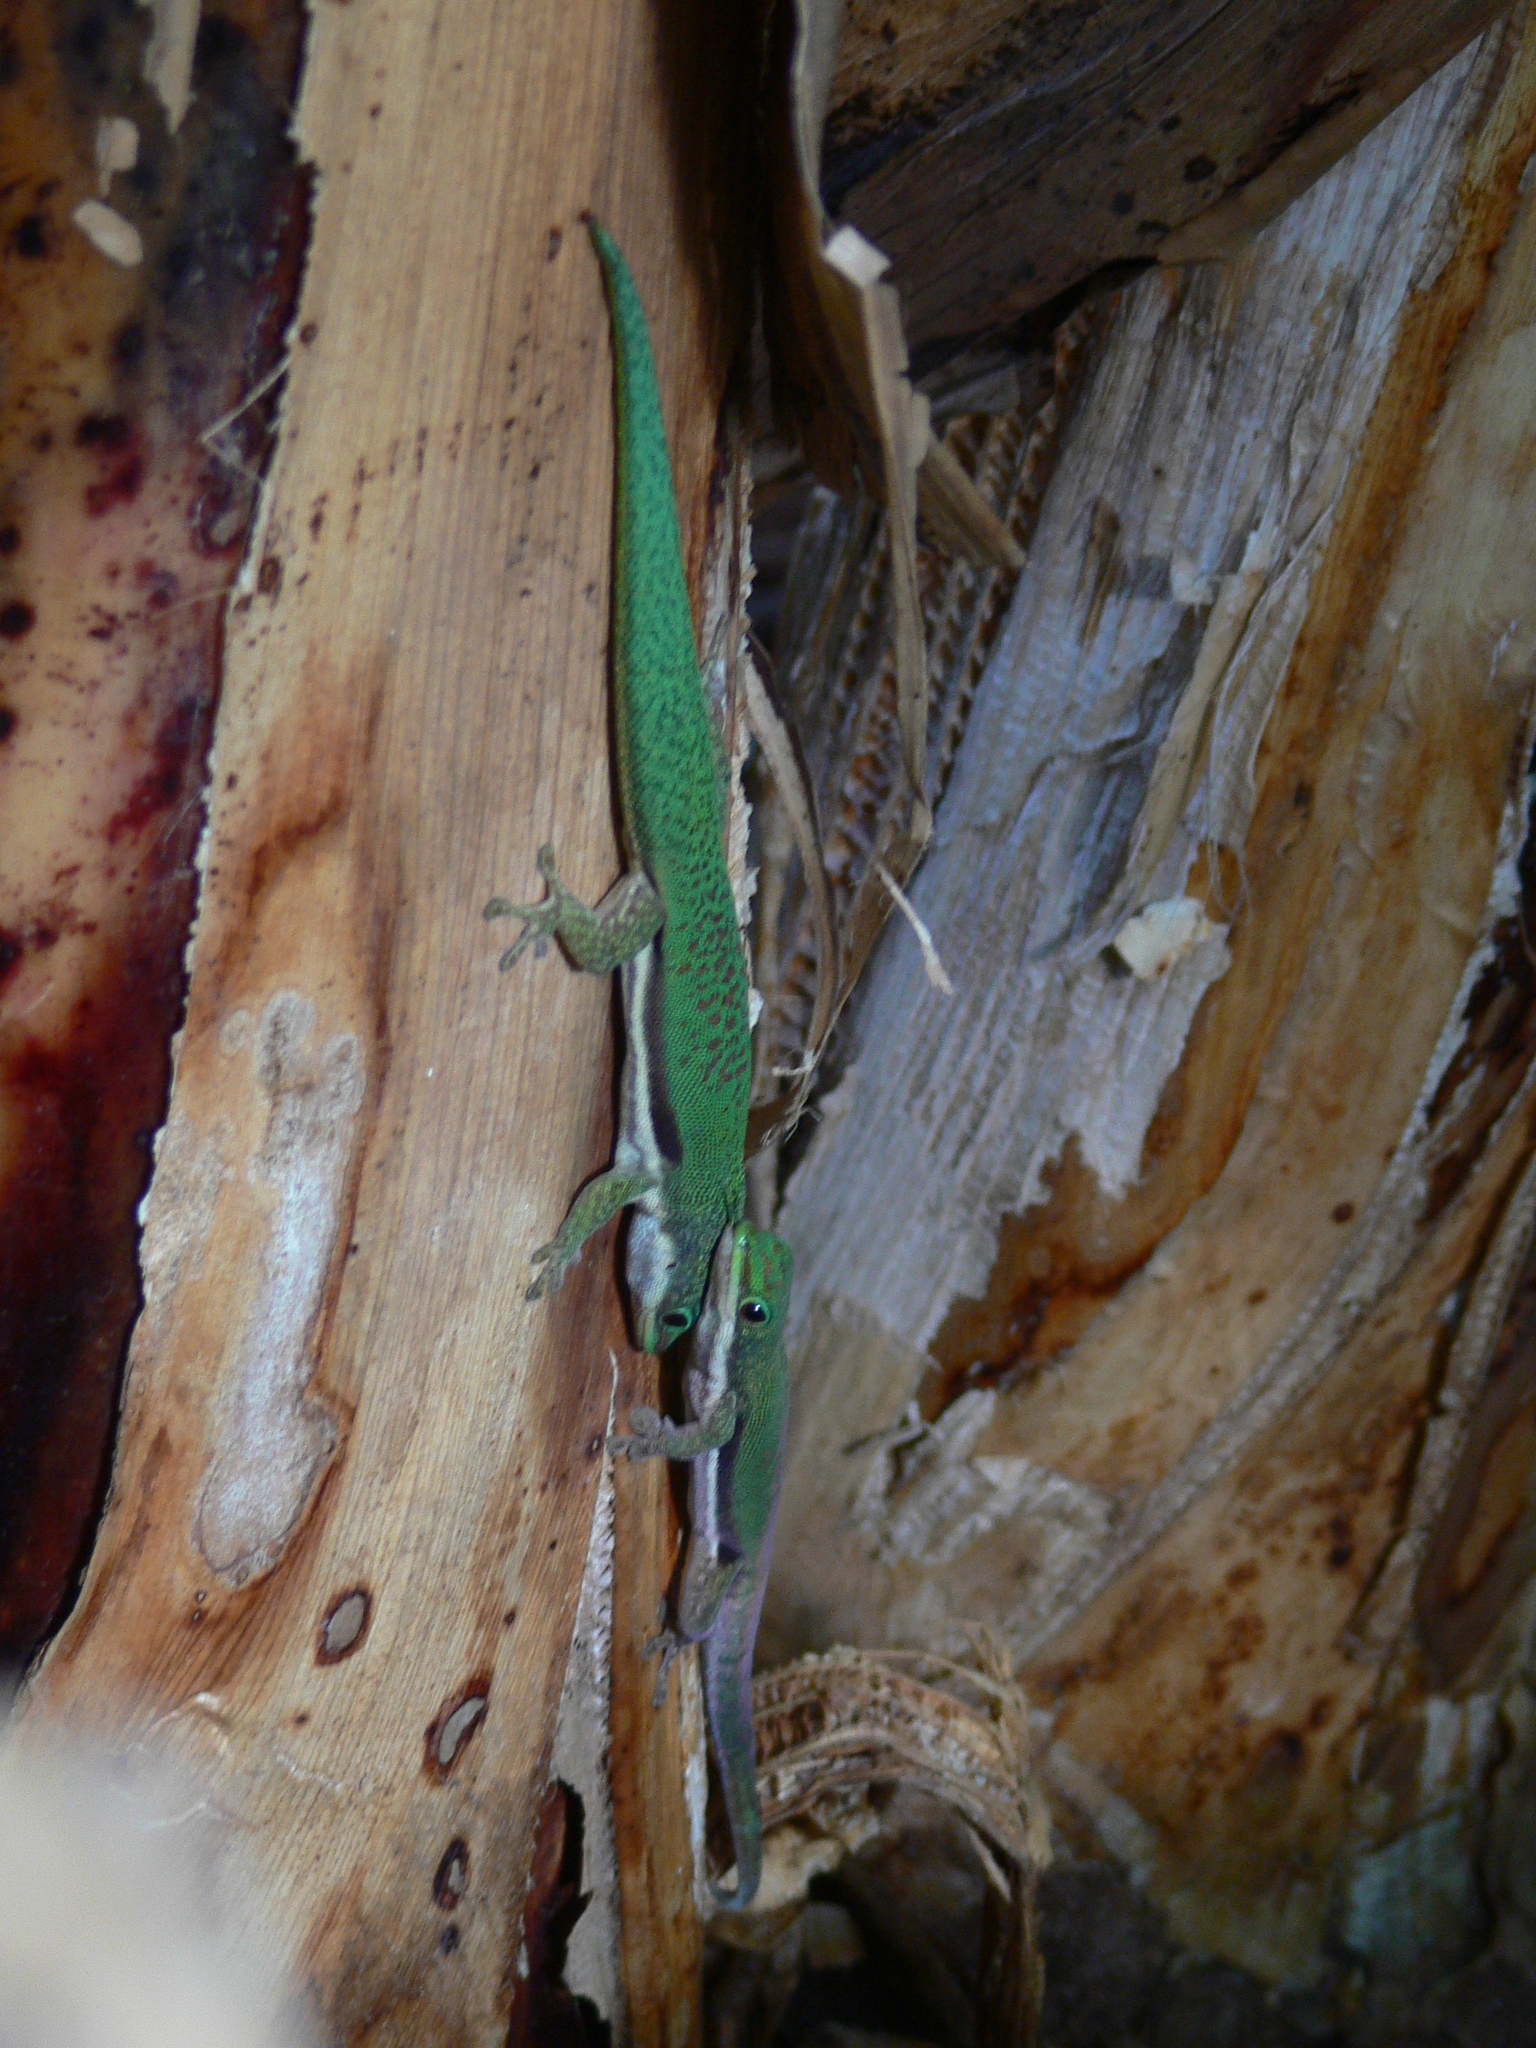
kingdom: Animalia
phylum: Chordata
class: Squamata
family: Gekkonidae
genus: Phelsuma
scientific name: Phelsuma lineata
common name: Lined day gecko
